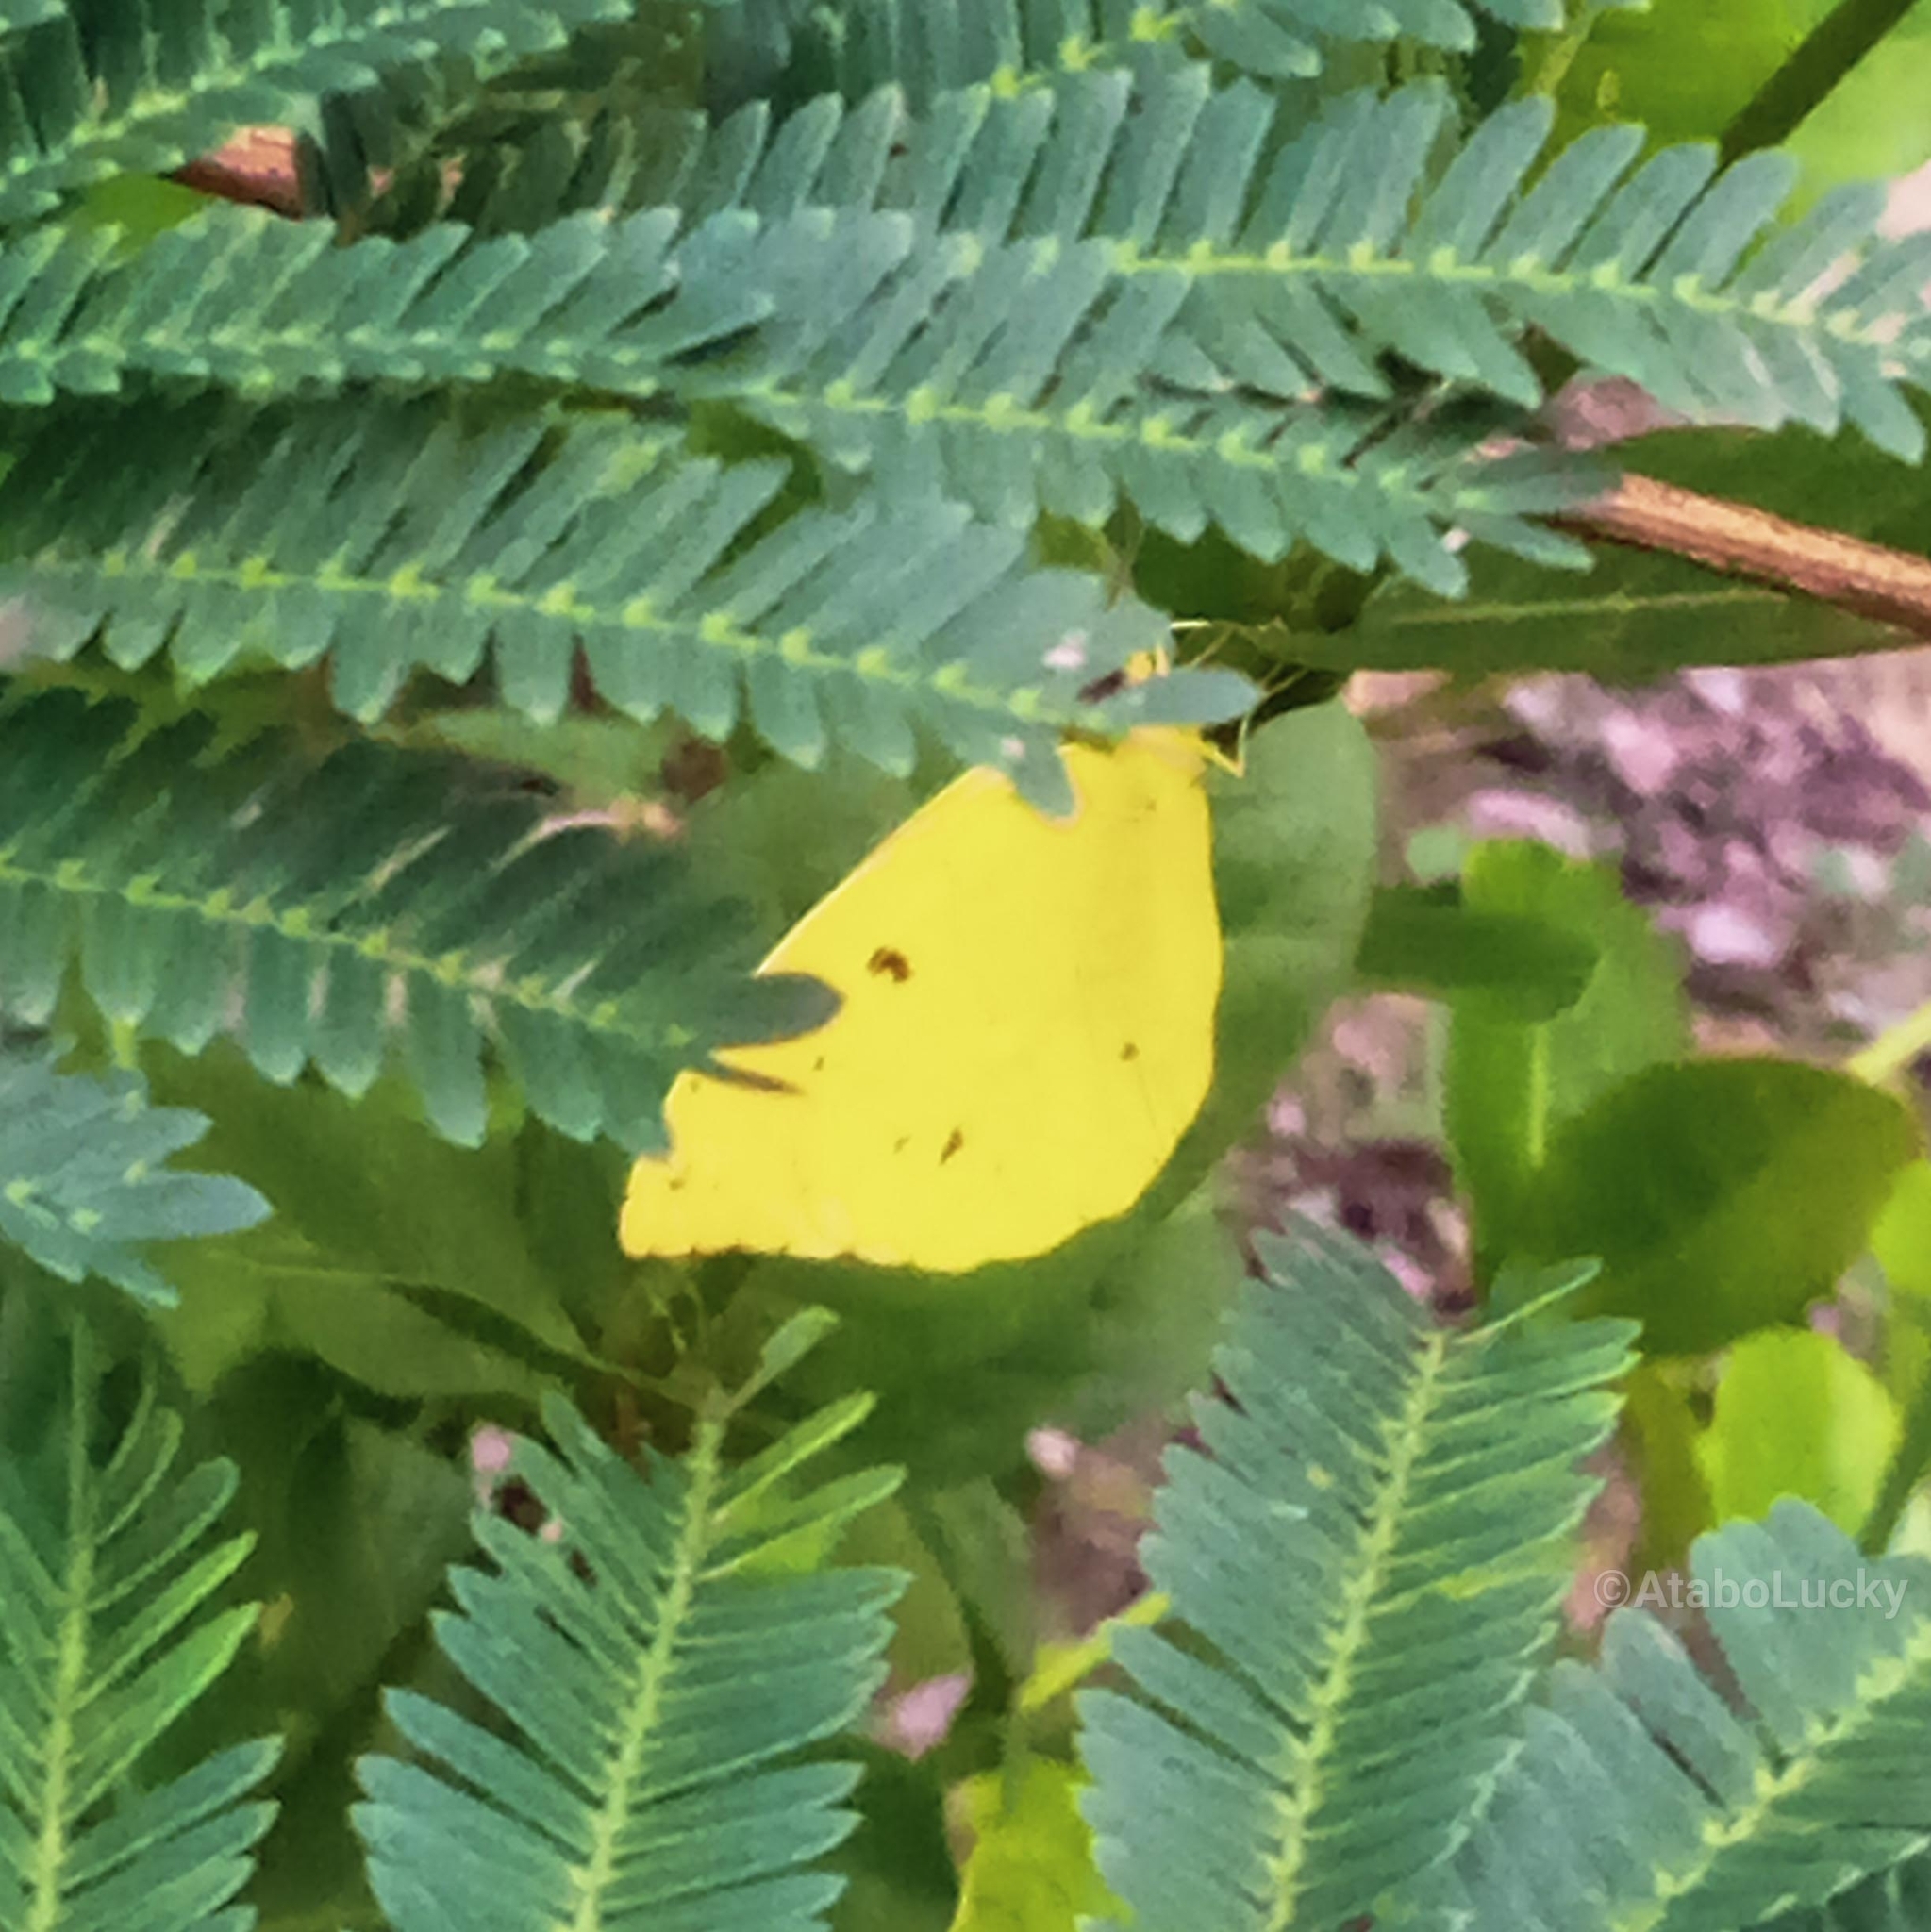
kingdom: Animalia
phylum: Arthropoda
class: Insecta
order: Lepidoptera
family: Pieridae
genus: Eronia
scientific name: Eronia leda
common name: Autumn leaf vagrant
